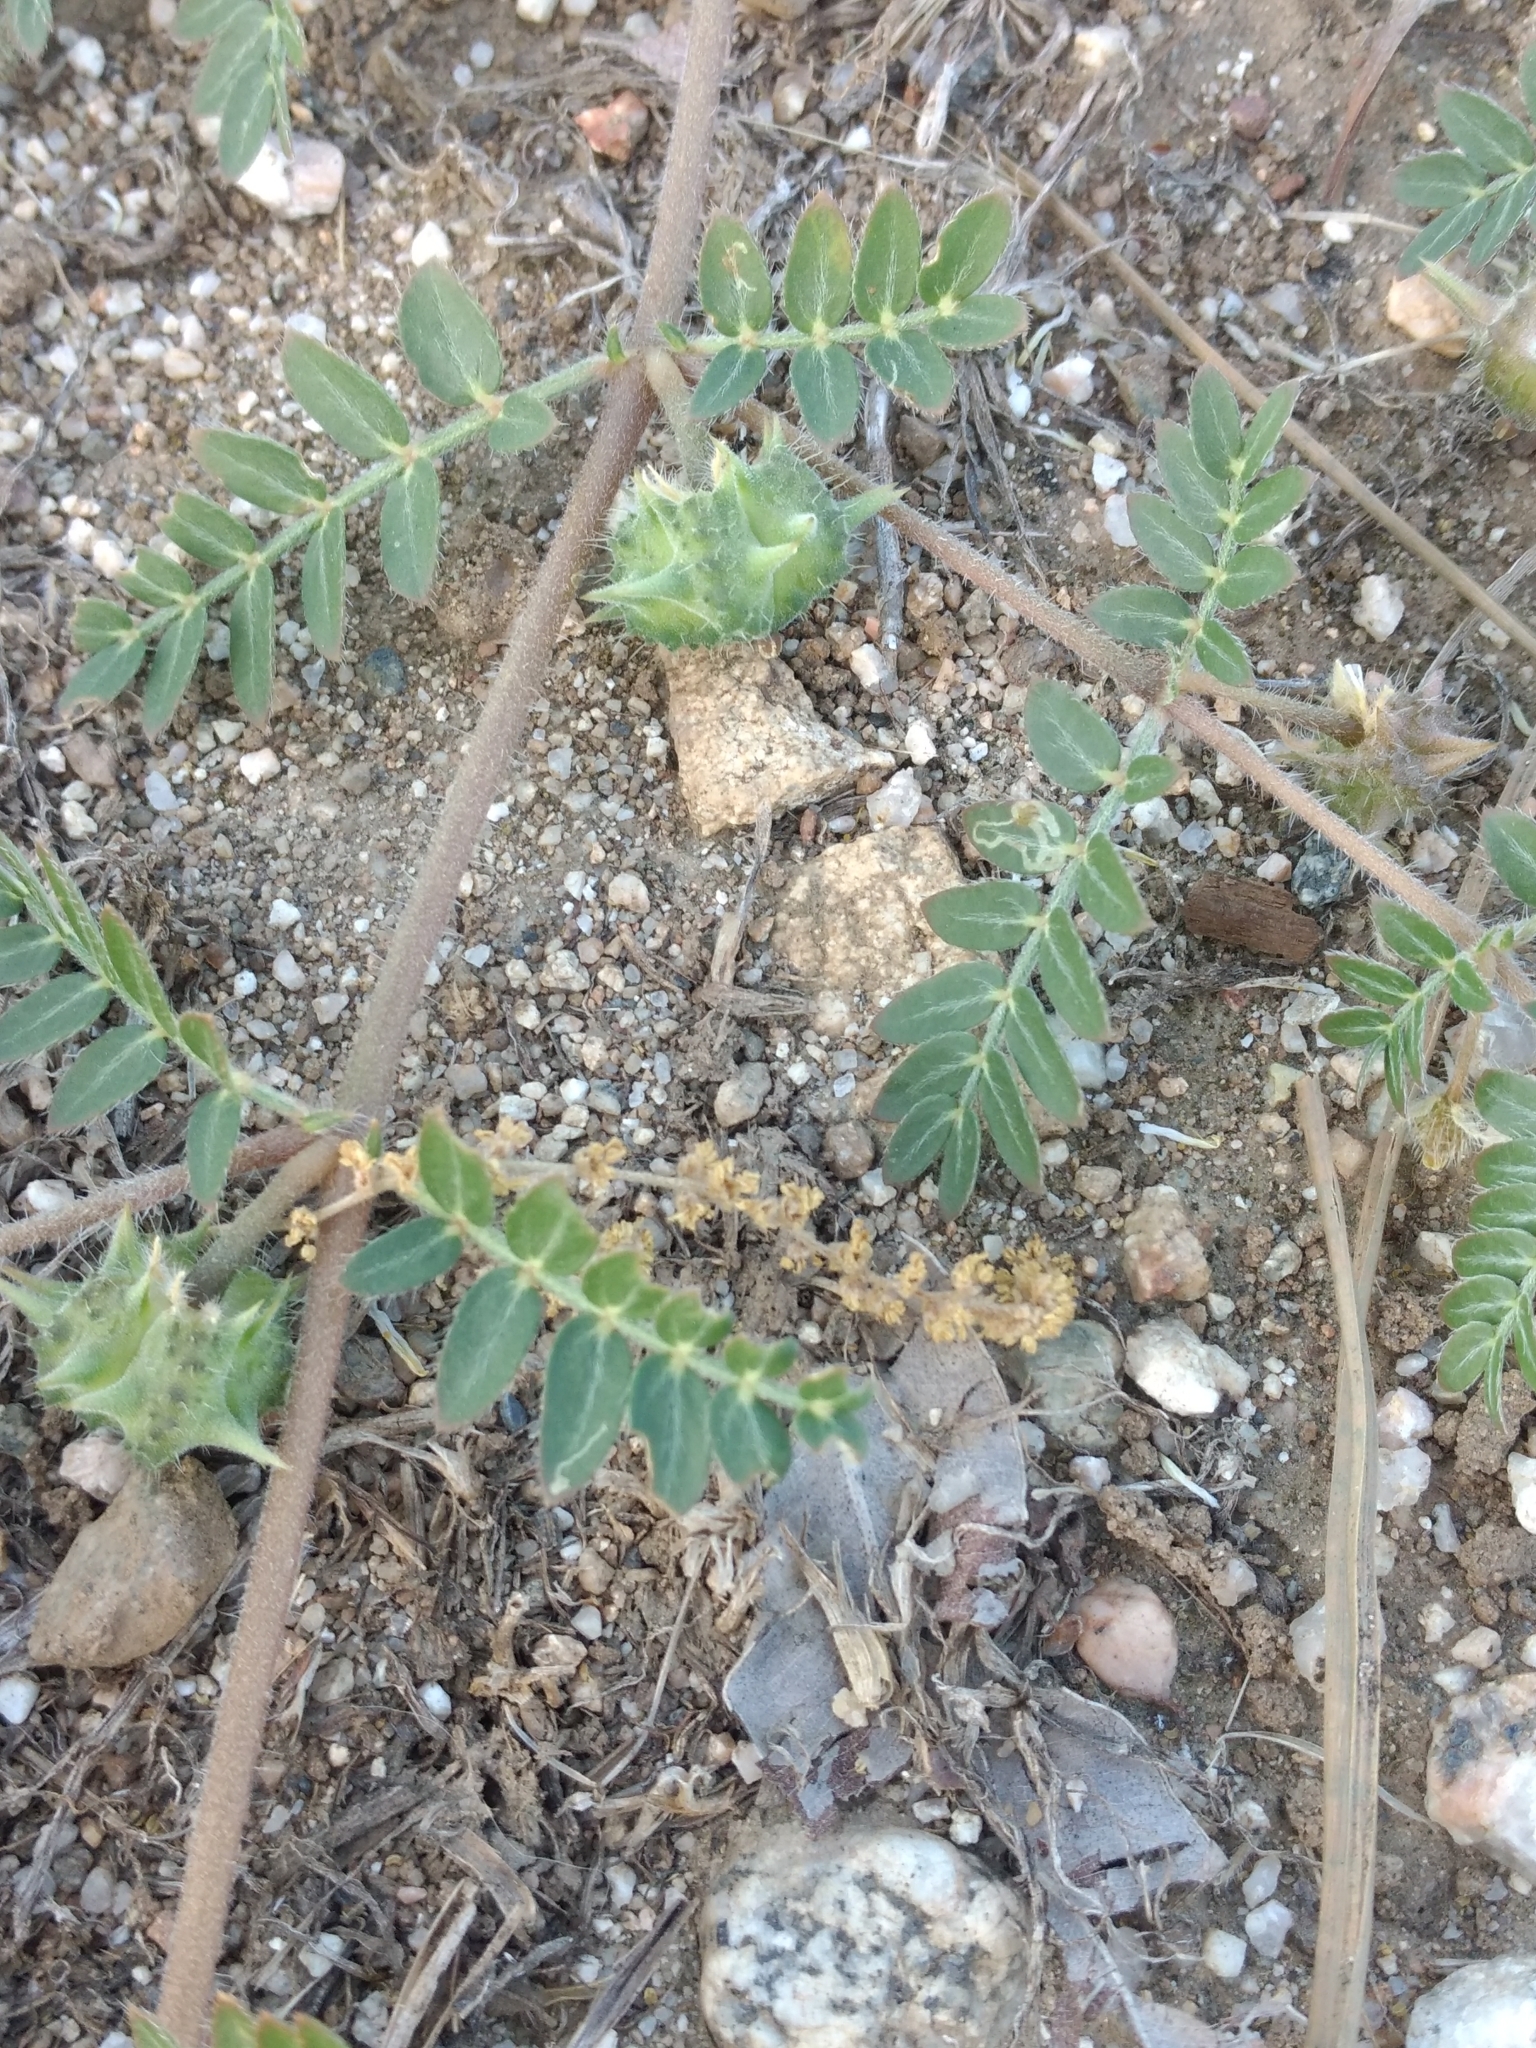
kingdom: Plantae
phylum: Tracheophyta
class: Magnoliopsida
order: Zygophyllales
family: Zygophyllaceae
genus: Tribulus
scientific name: Tribulus terrestris
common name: Puncturevine
